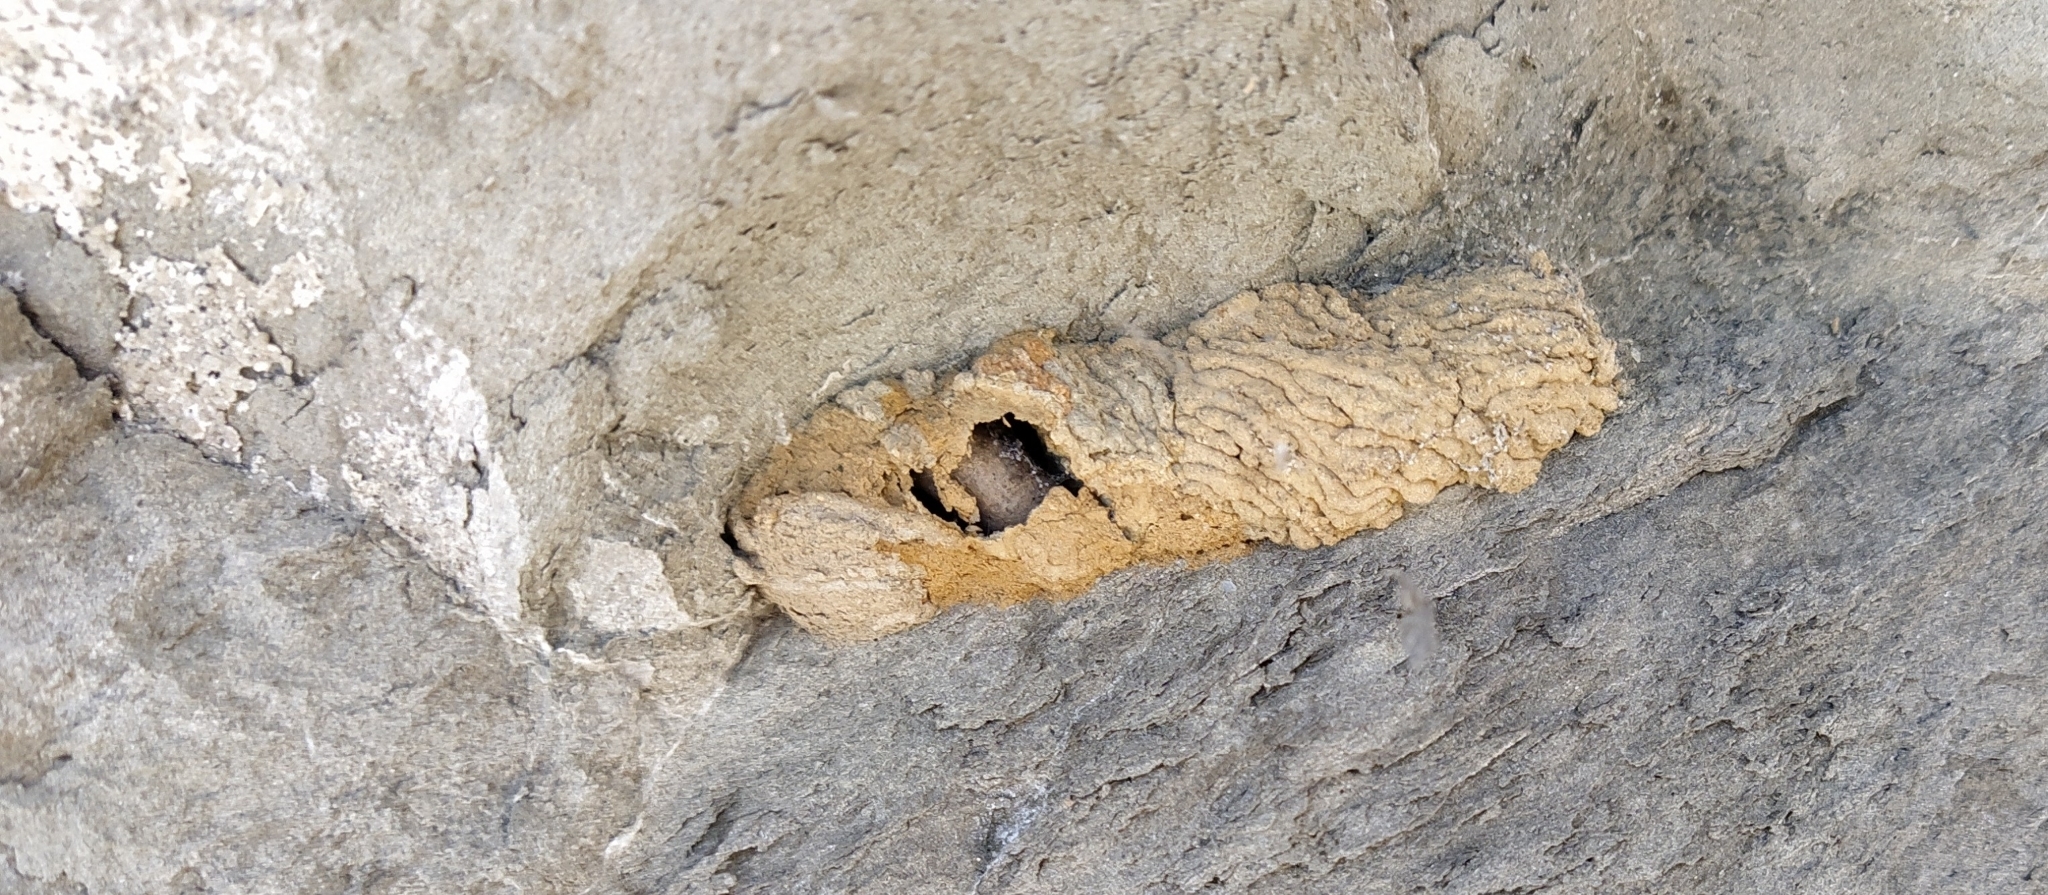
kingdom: Animalia
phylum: Arthropoda
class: Insecta
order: Hymenoptera
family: Crabronidae
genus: Pison
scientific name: Pison spinolae
